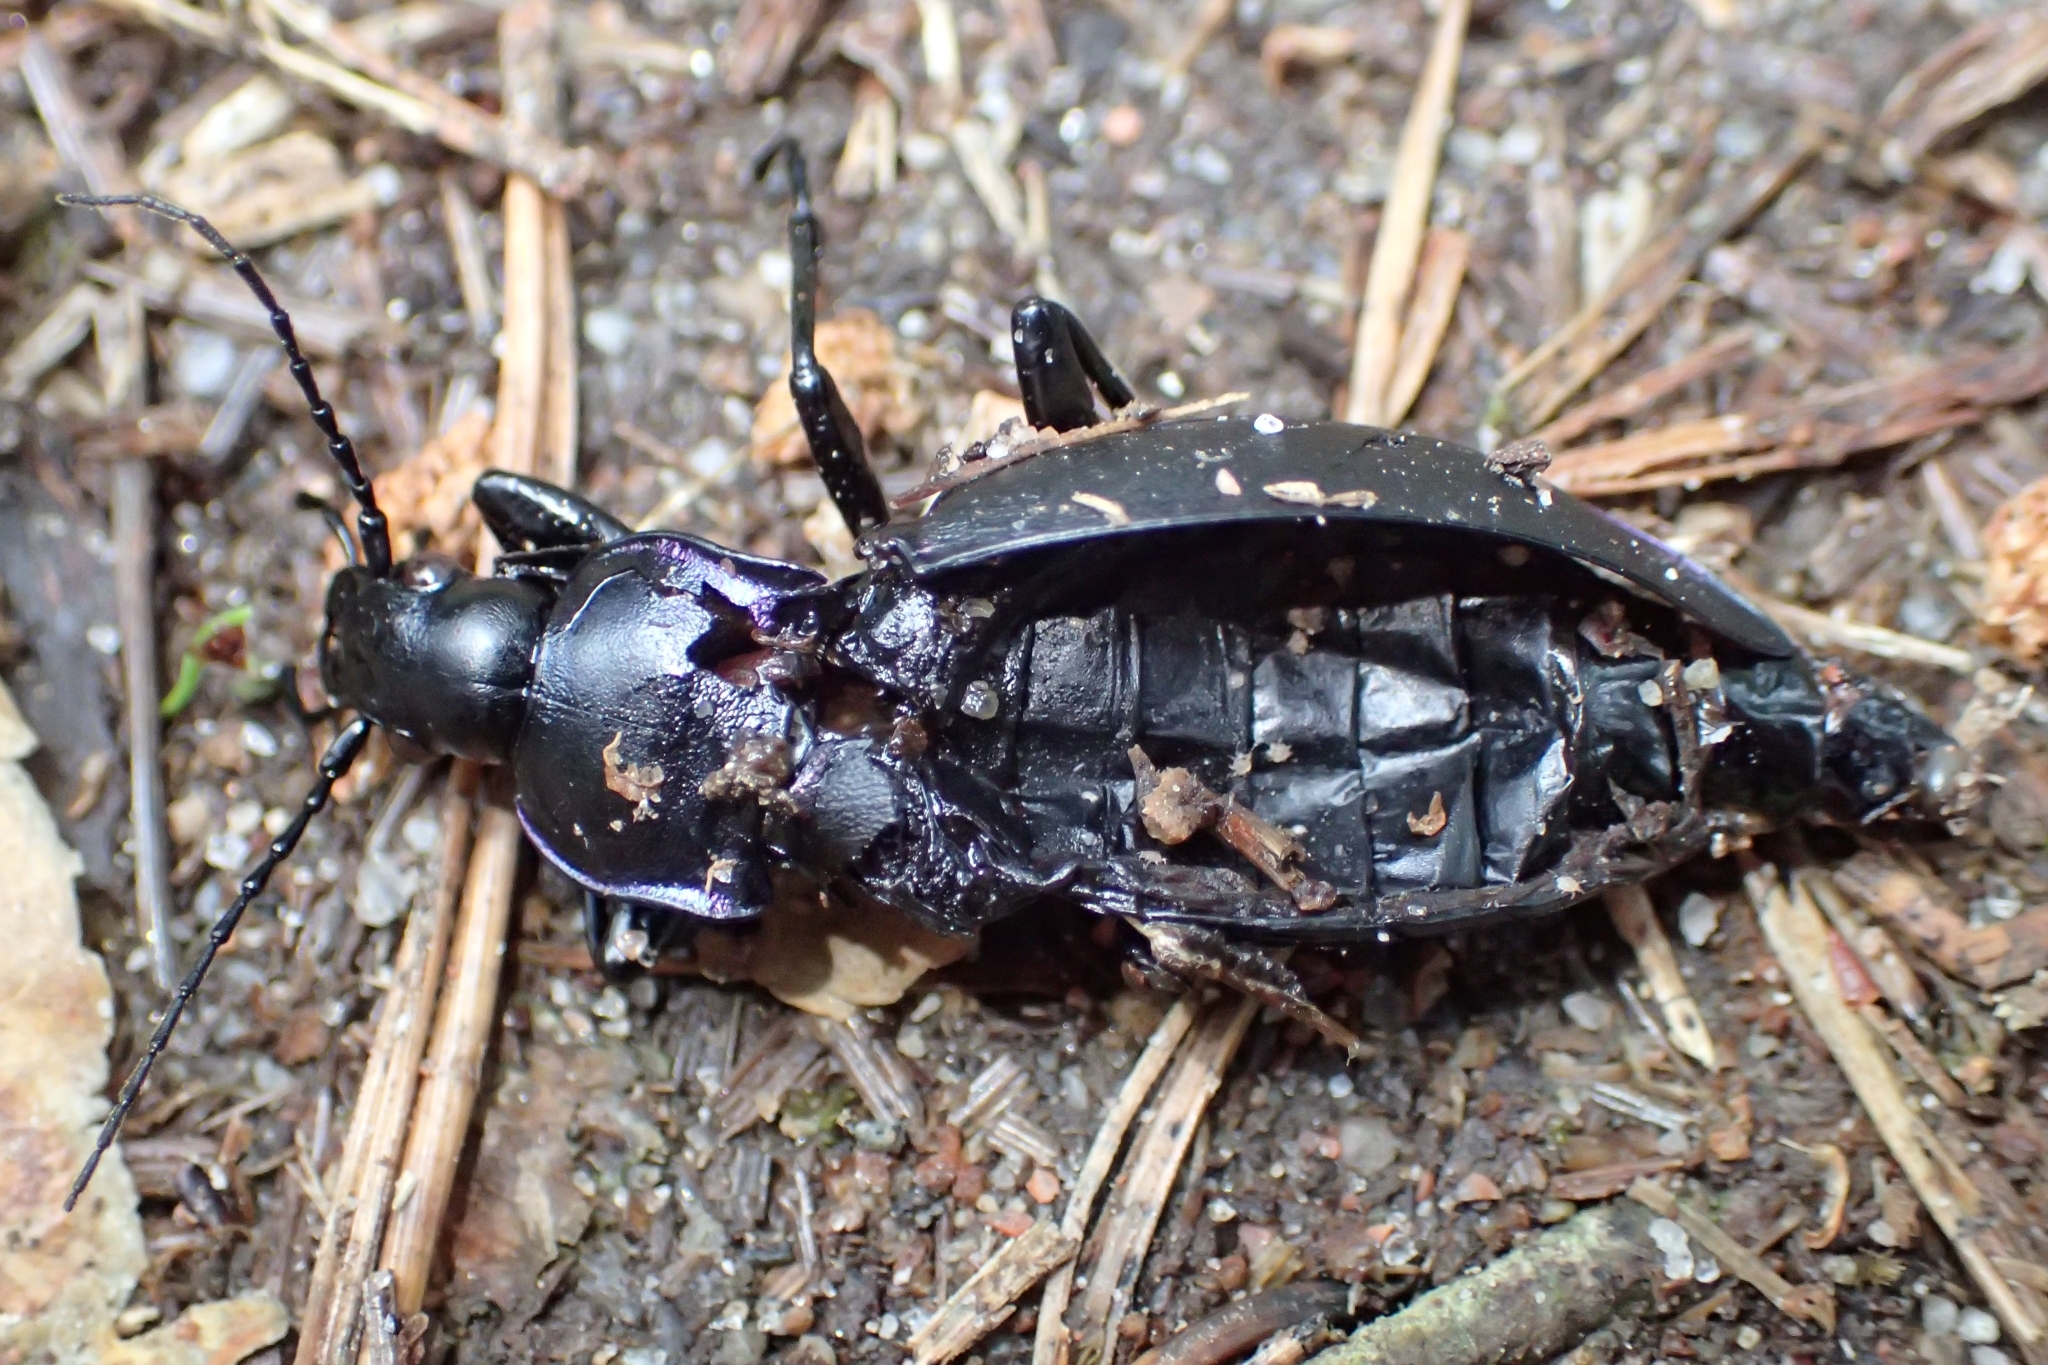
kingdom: Animalia
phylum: Arthropoda
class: Insecta
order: Coleoptera
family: Carabidae
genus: Carabus
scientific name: Carabus violaceus
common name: Violet ground beetle
